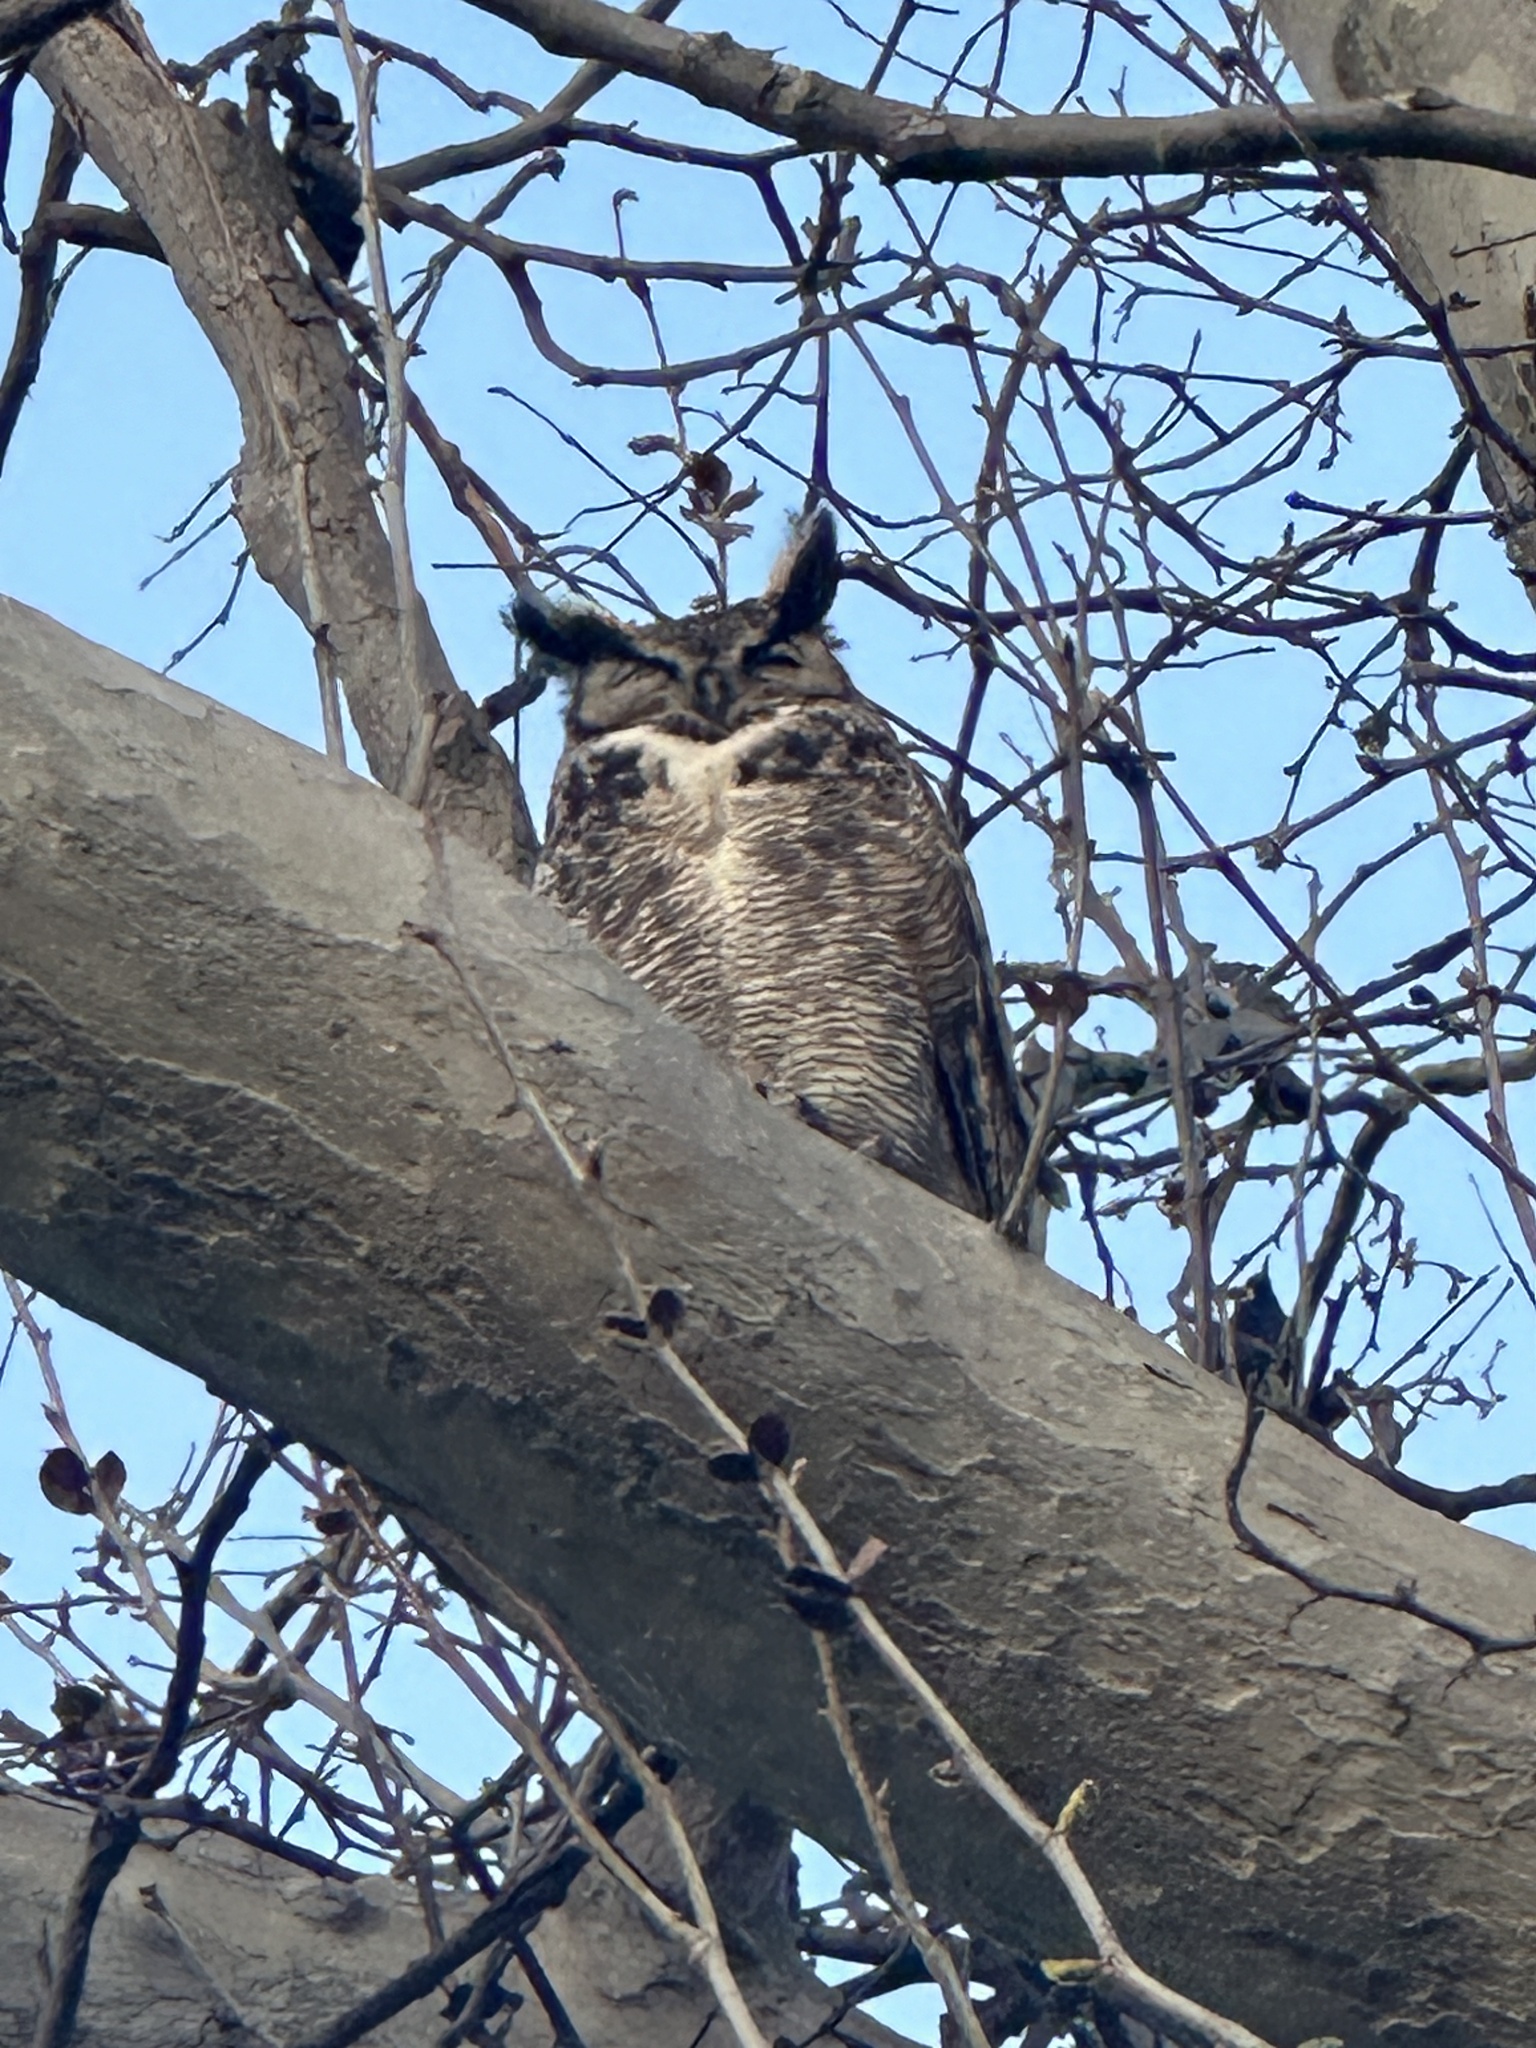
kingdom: Animalia
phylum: Chordata
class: Aves
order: Strigiformes
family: Strigidae
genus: Bubo
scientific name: Bubo virginianus
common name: Great horned owl
